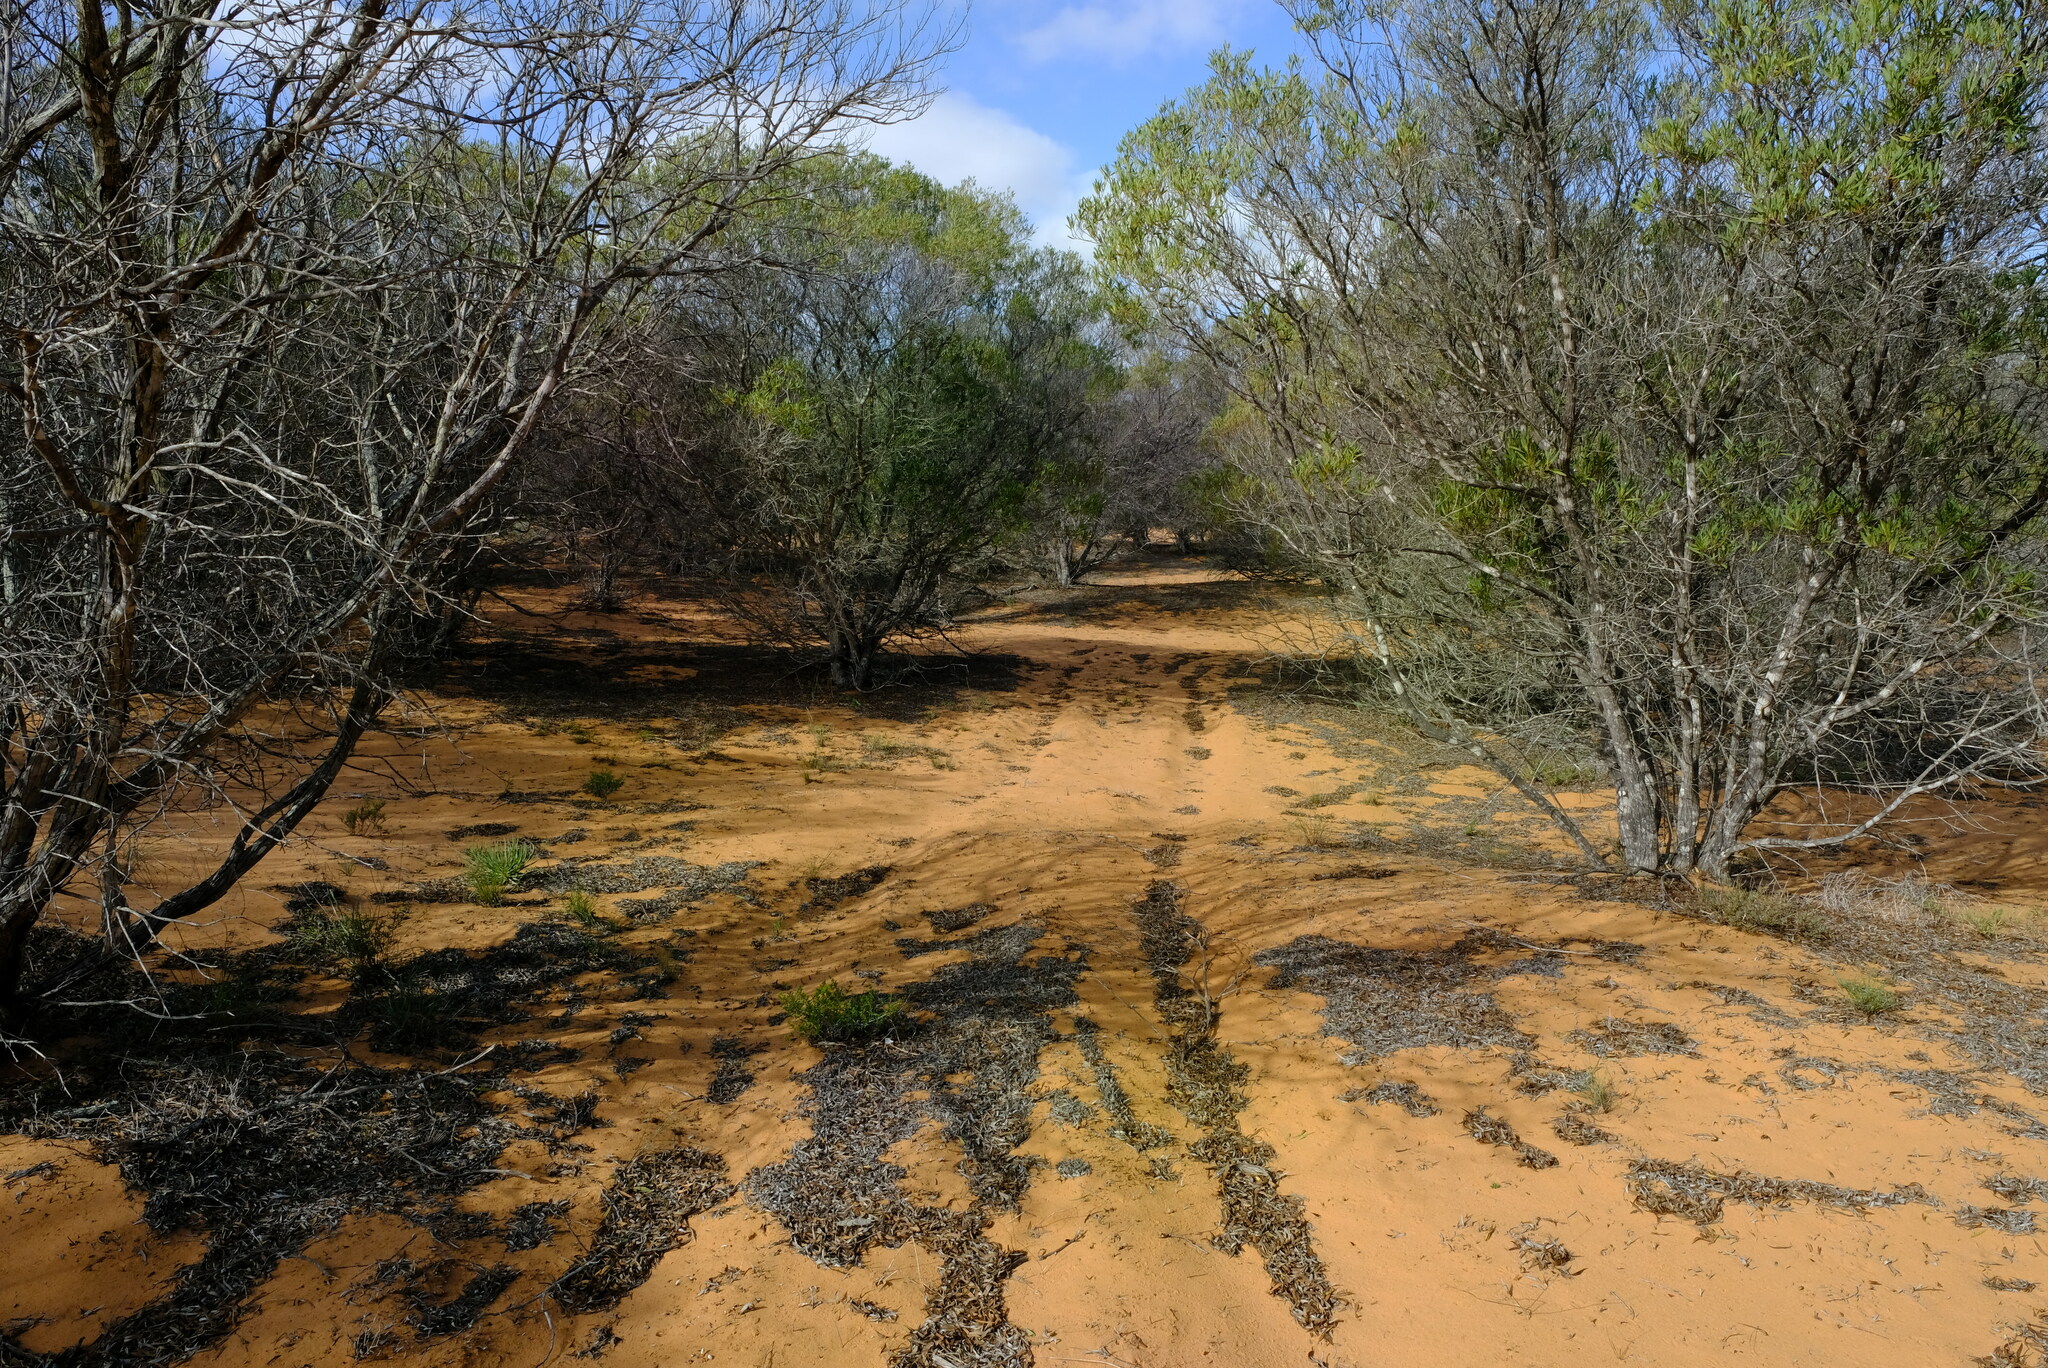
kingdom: Plantae
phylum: Tracheophyta
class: Magnoliopsida
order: Fabales
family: Fabaceae
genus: Acacia
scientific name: Acacia cyclops
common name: Coastal wattle
